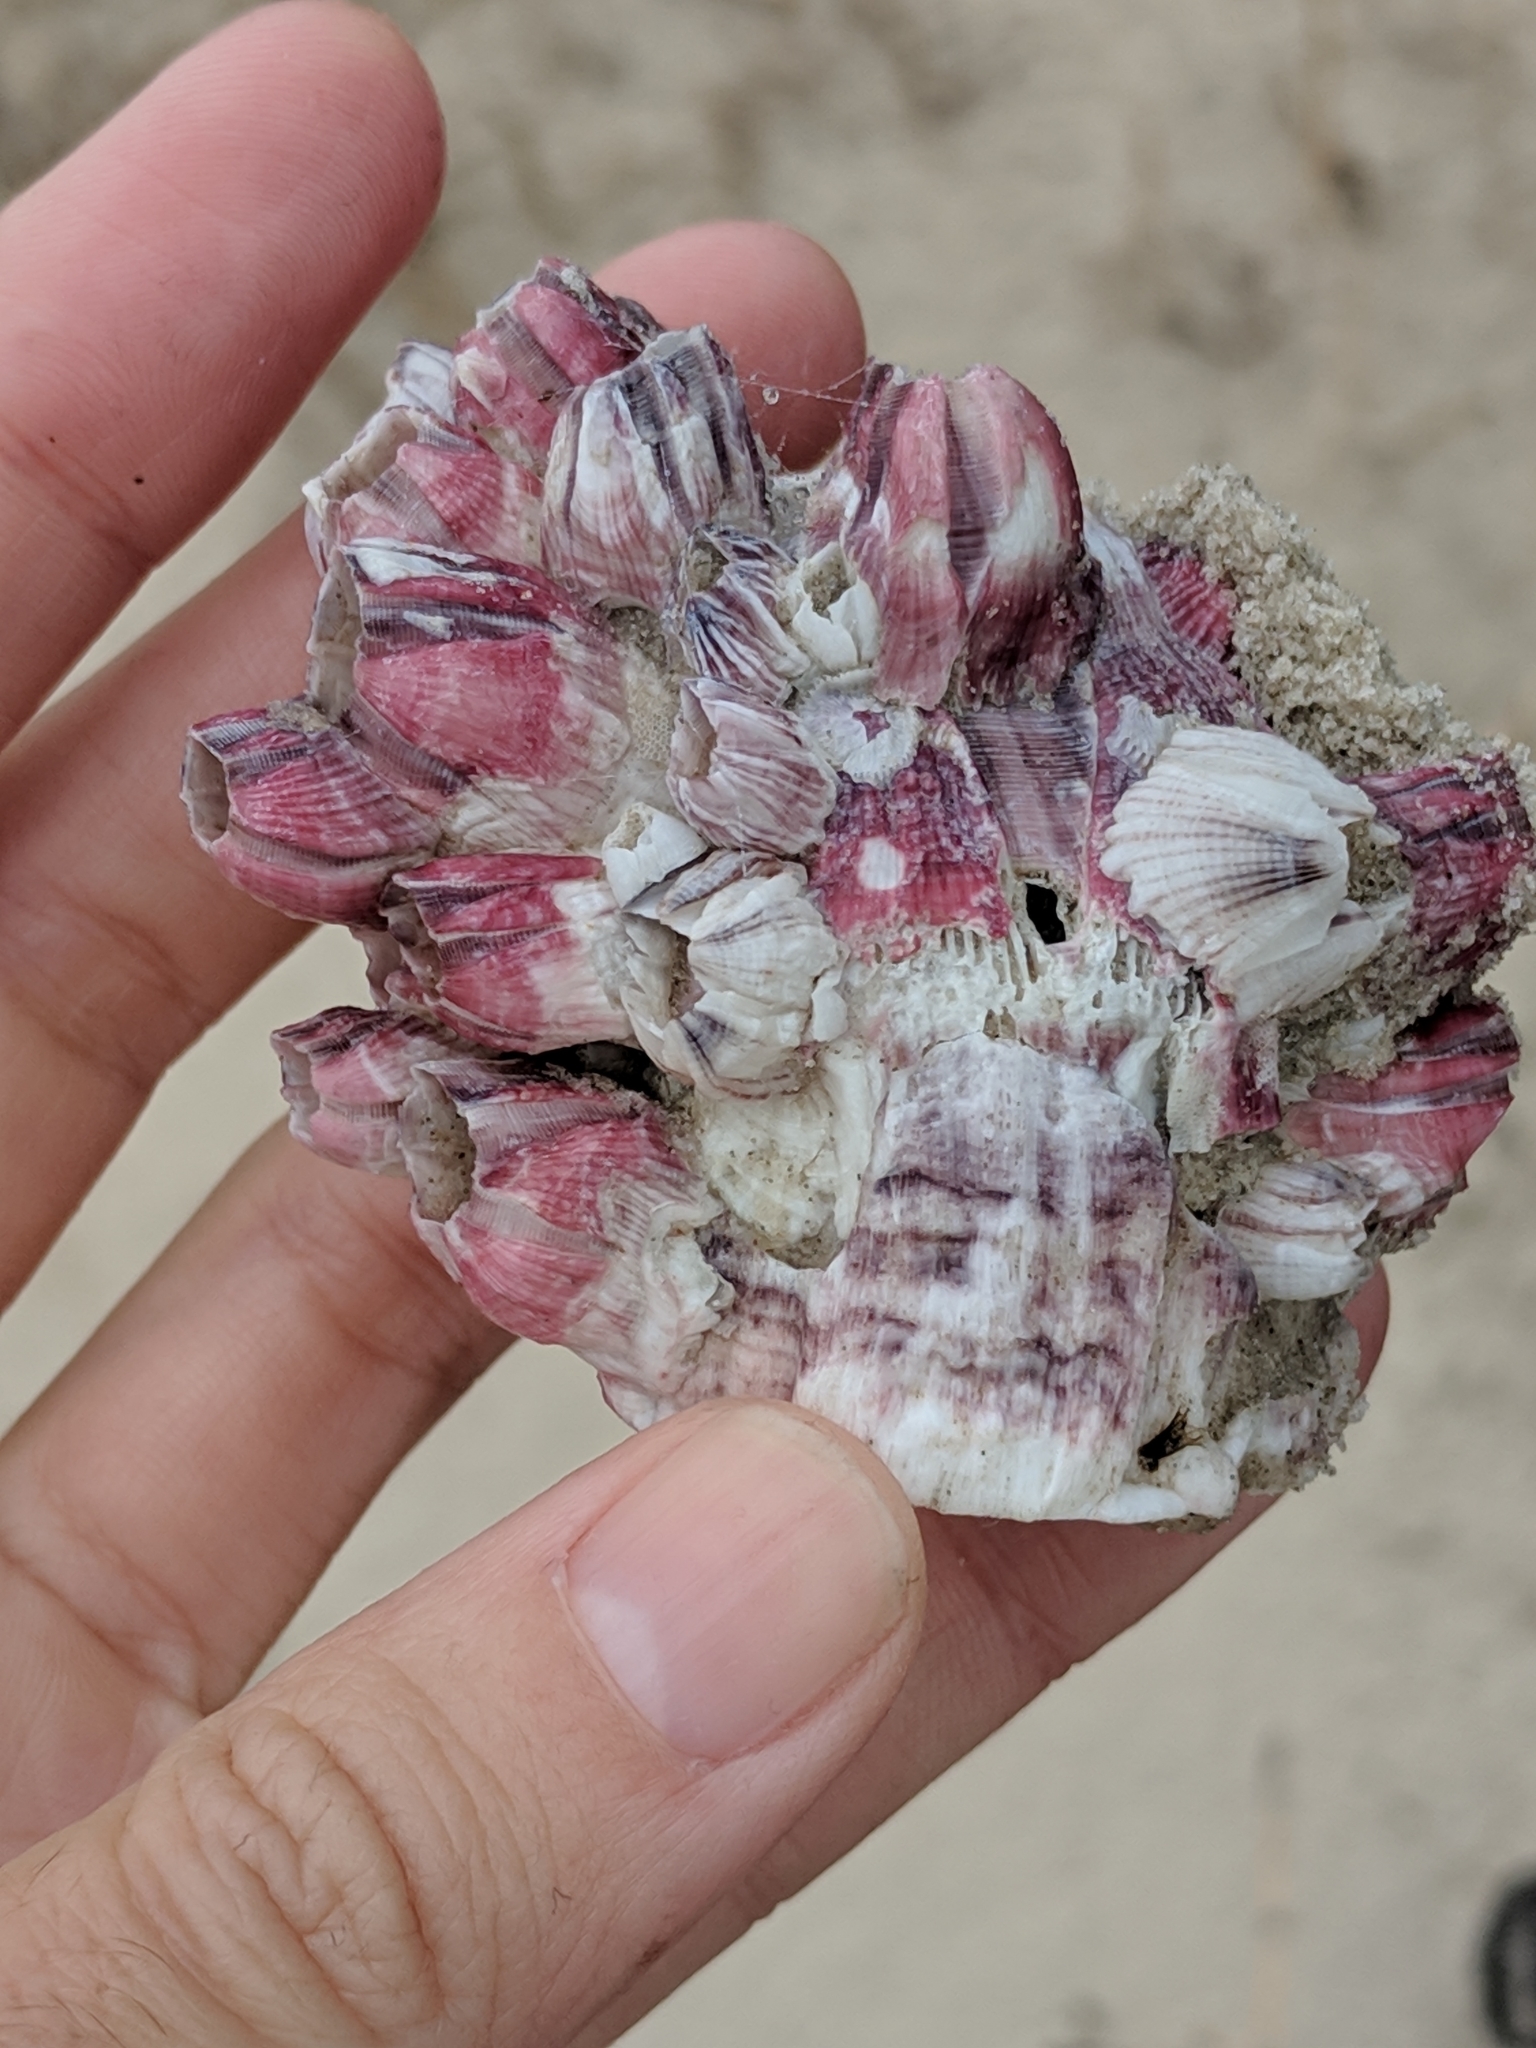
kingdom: Animalia
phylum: Arthropoda
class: Maxillopoda
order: Sessilia
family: Balanidae
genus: Megabalanus
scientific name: Megabalanus tintinnabulum
